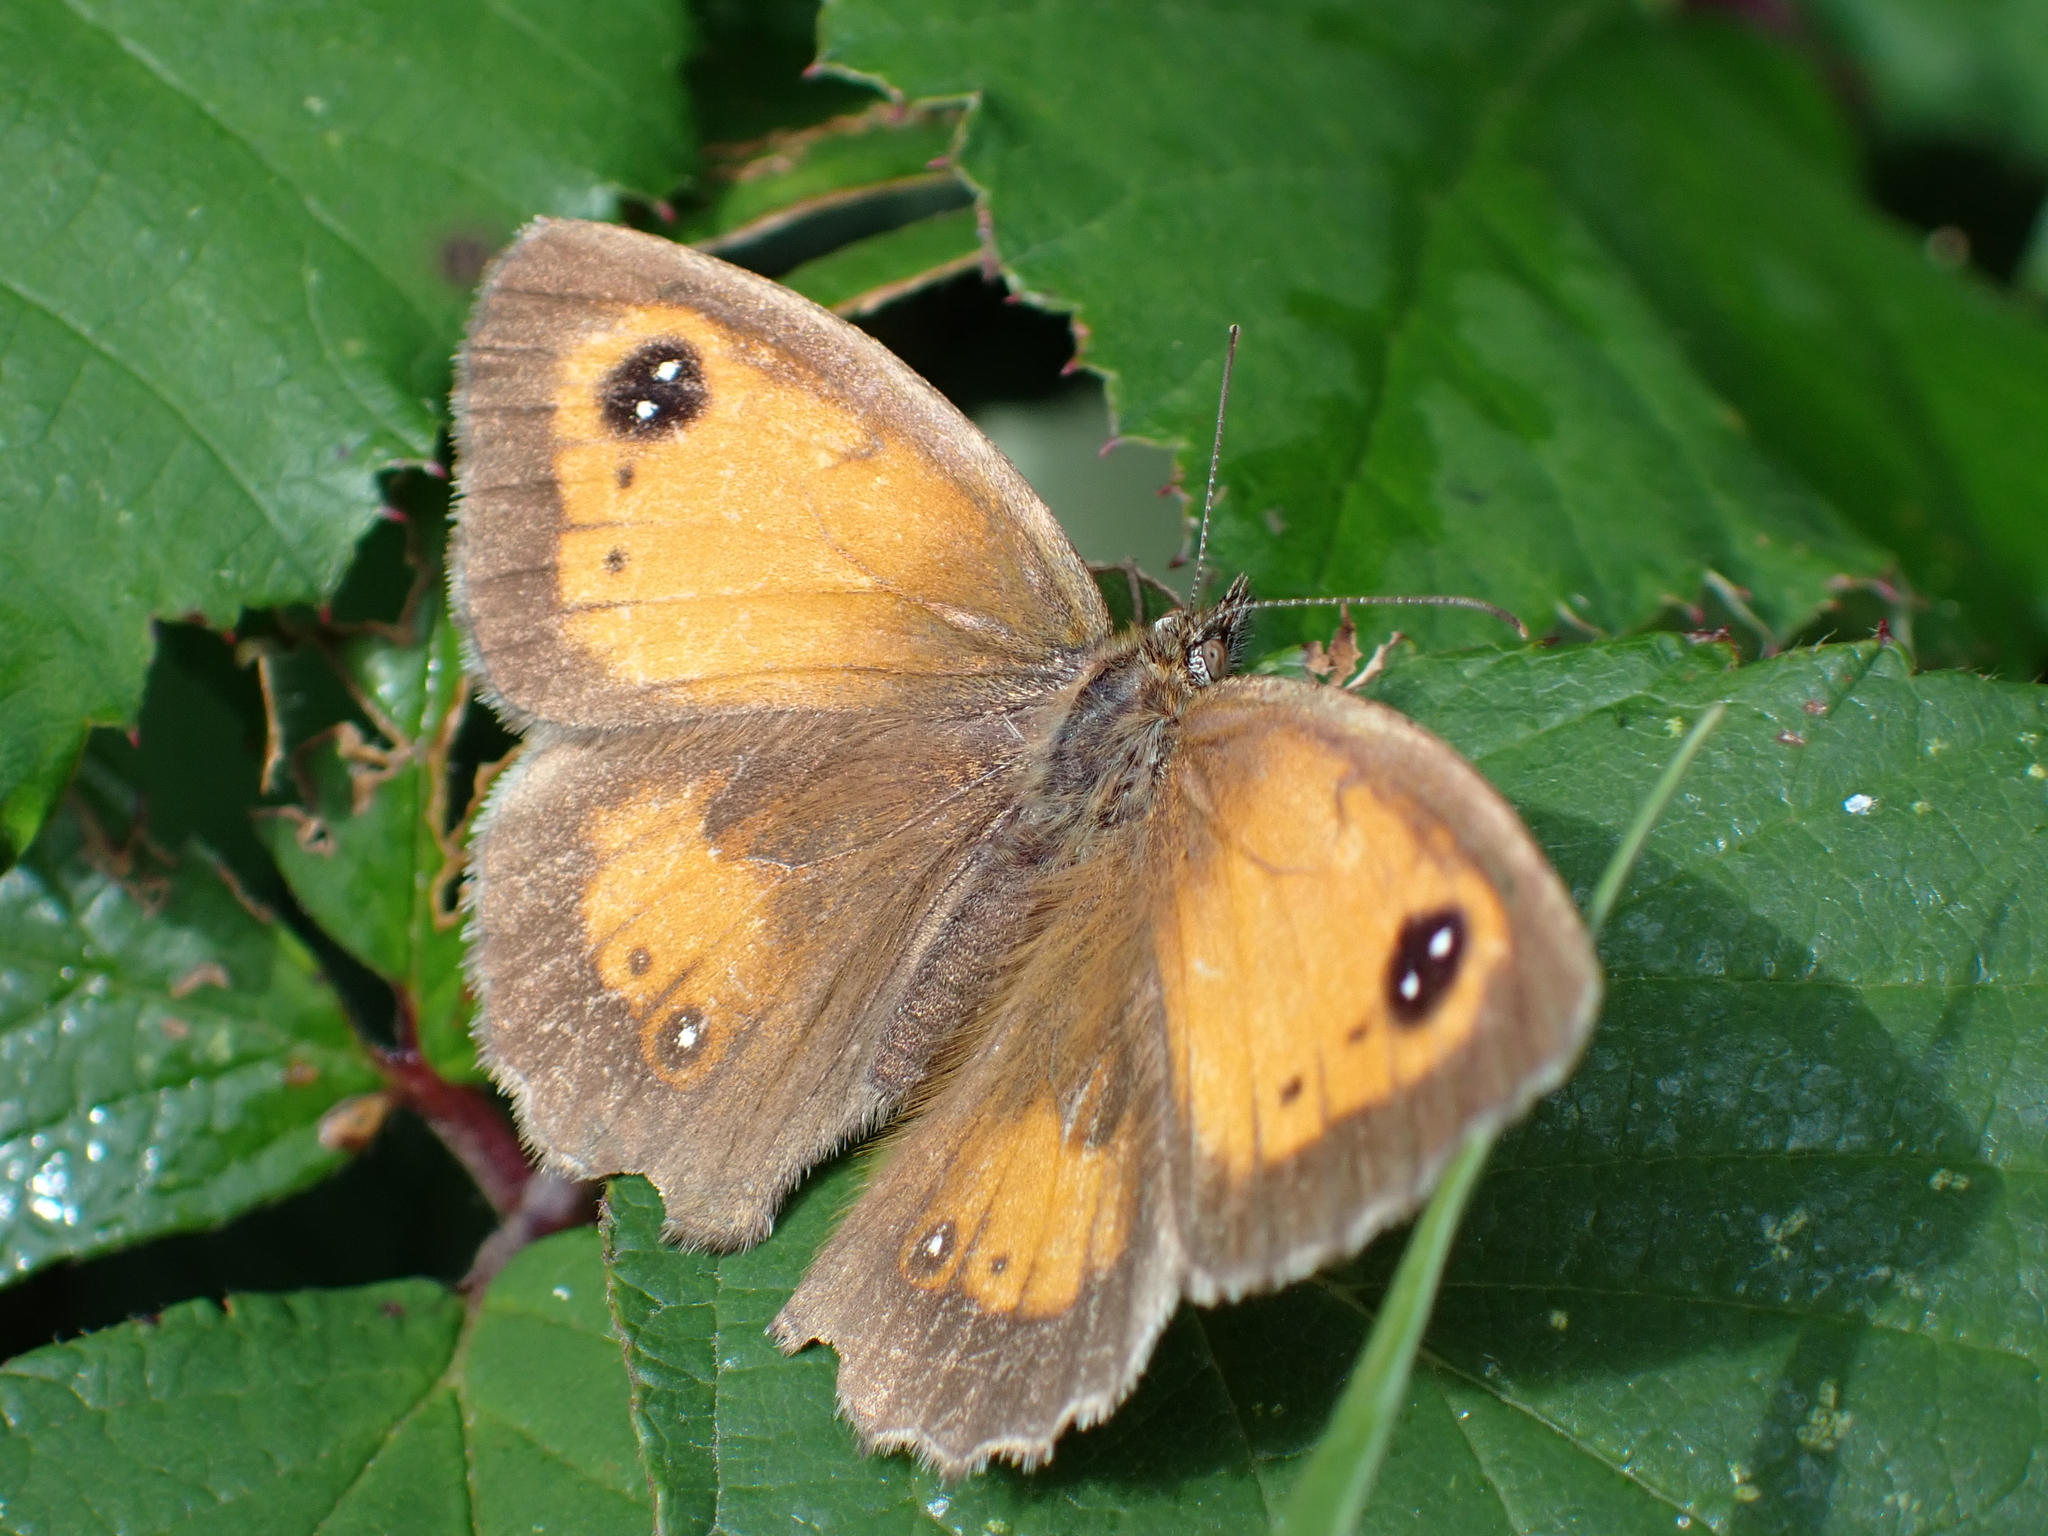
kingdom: Animalia
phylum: Arthropoda
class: Insecta
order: Lepidoptera
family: Nymphalidae
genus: Pyronia
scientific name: Pyronia tithonus
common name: Gatekeeper
